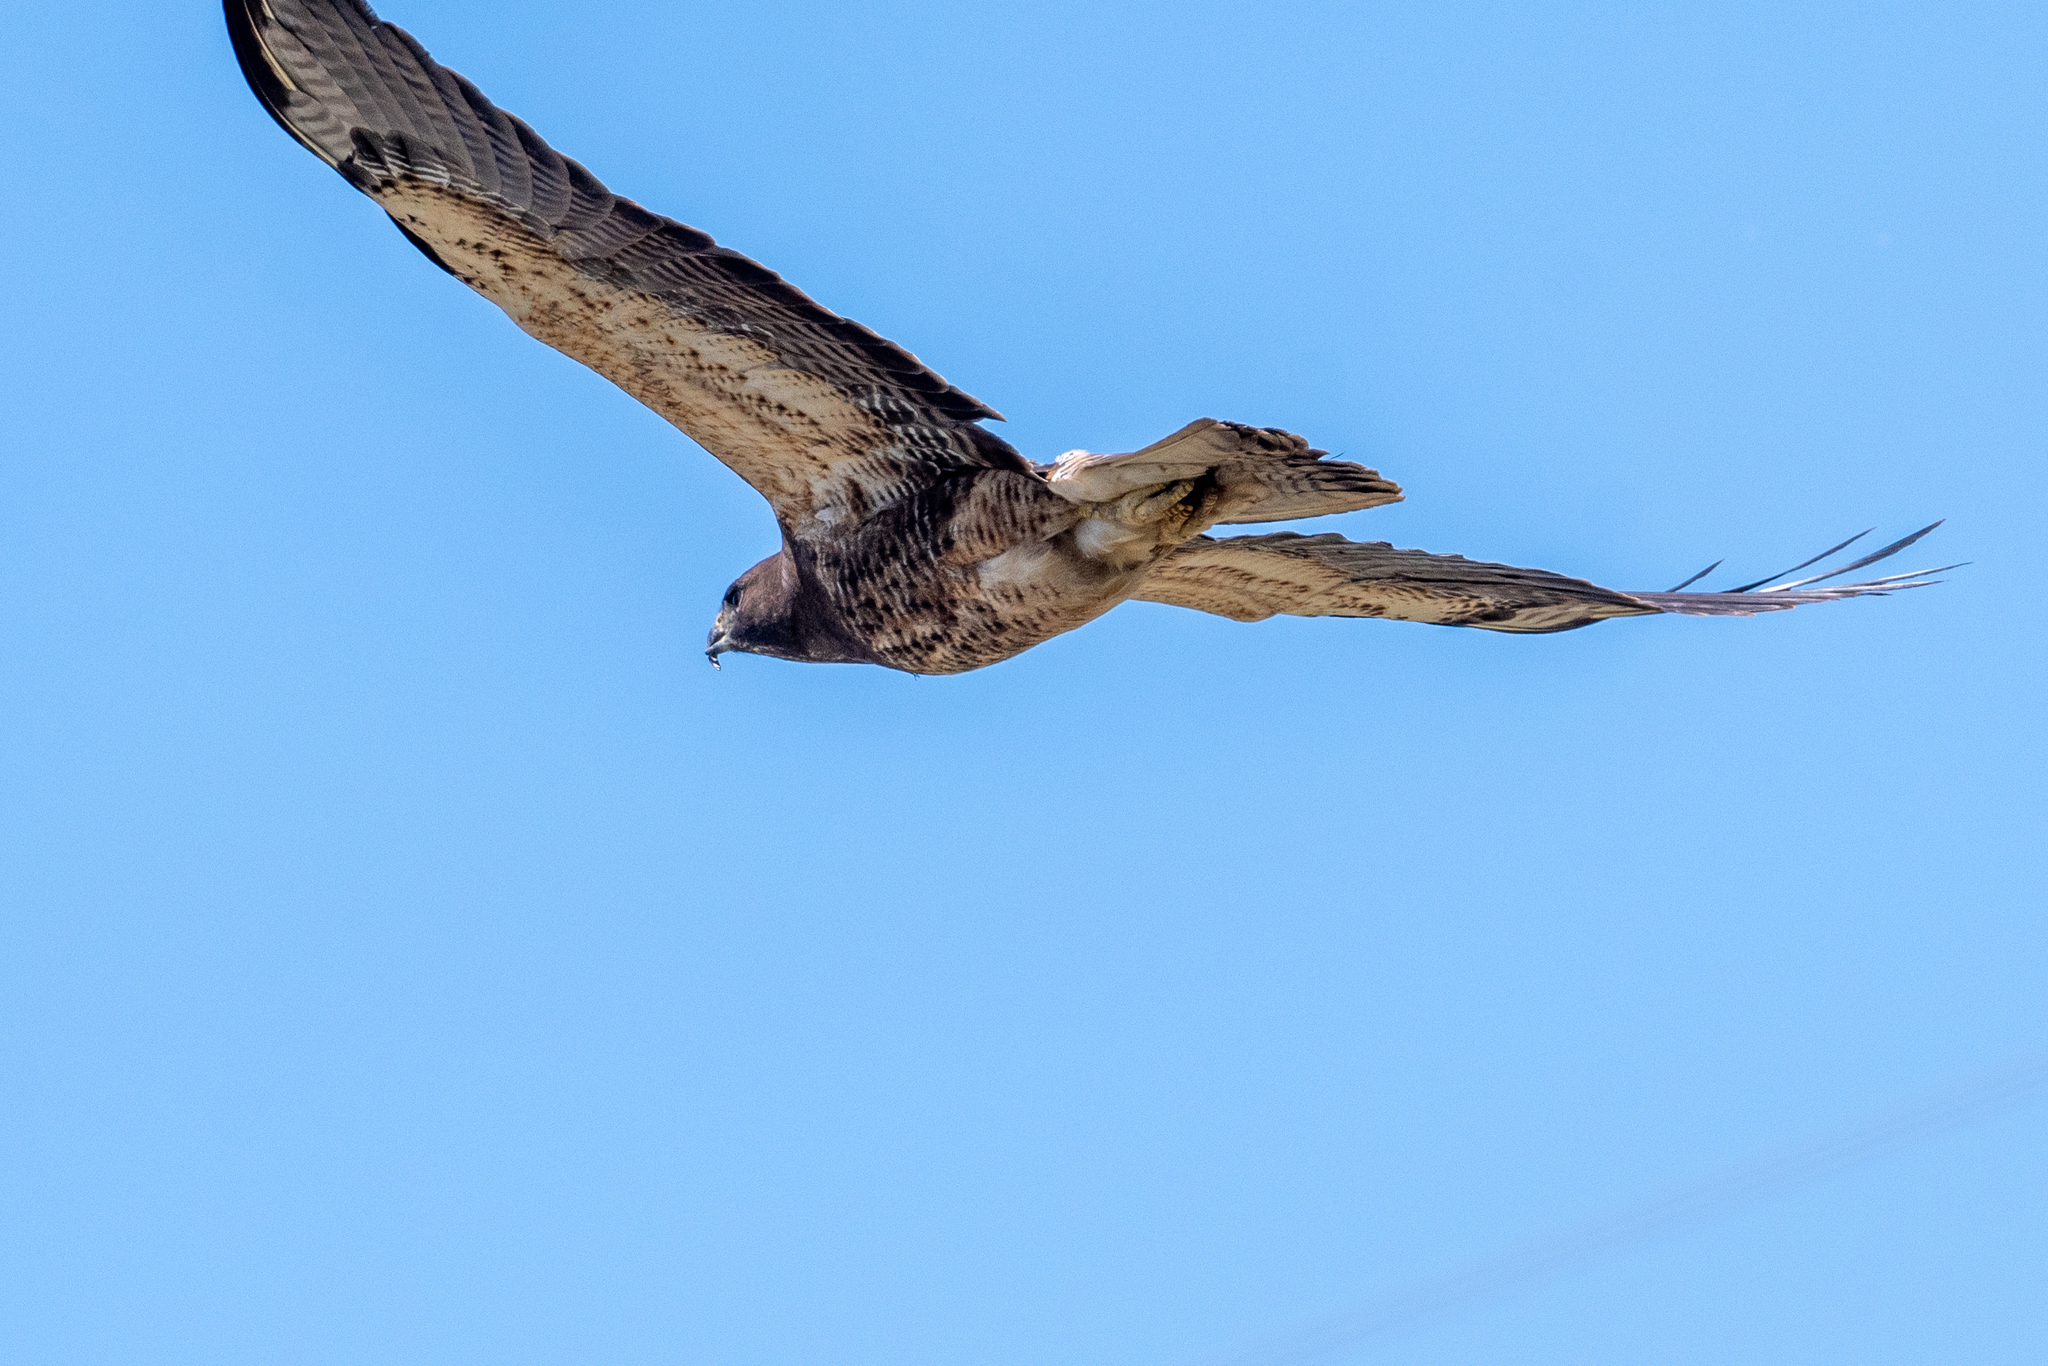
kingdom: Animalia
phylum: Chordata
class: Aves
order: Accipitriformes
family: Accipitridae
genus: Buteo
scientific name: Buteo swainsoni
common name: Swainson's hawk
